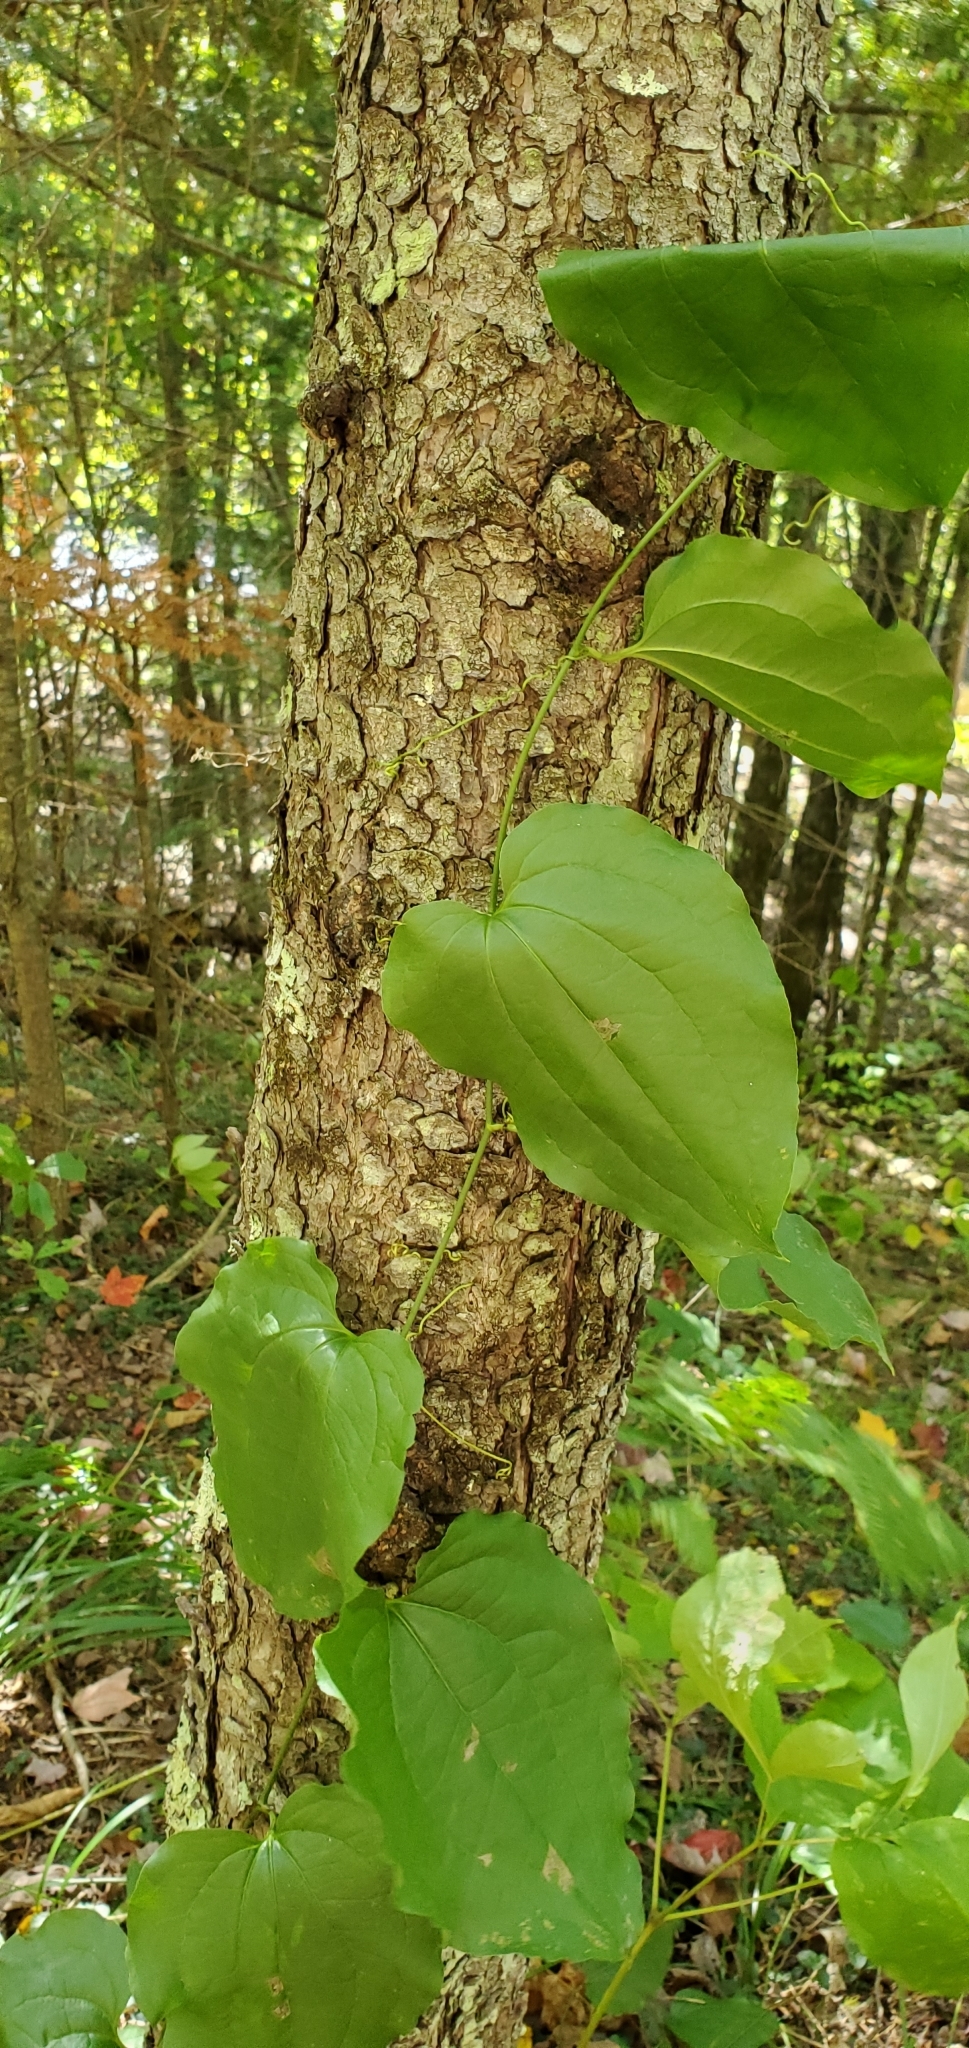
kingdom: Plantae
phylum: Tracheophyta
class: Liliopsida
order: Liliales
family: Smilacaceae
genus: Smilax
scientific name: Smilax tamnoides
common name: Hellfetter
